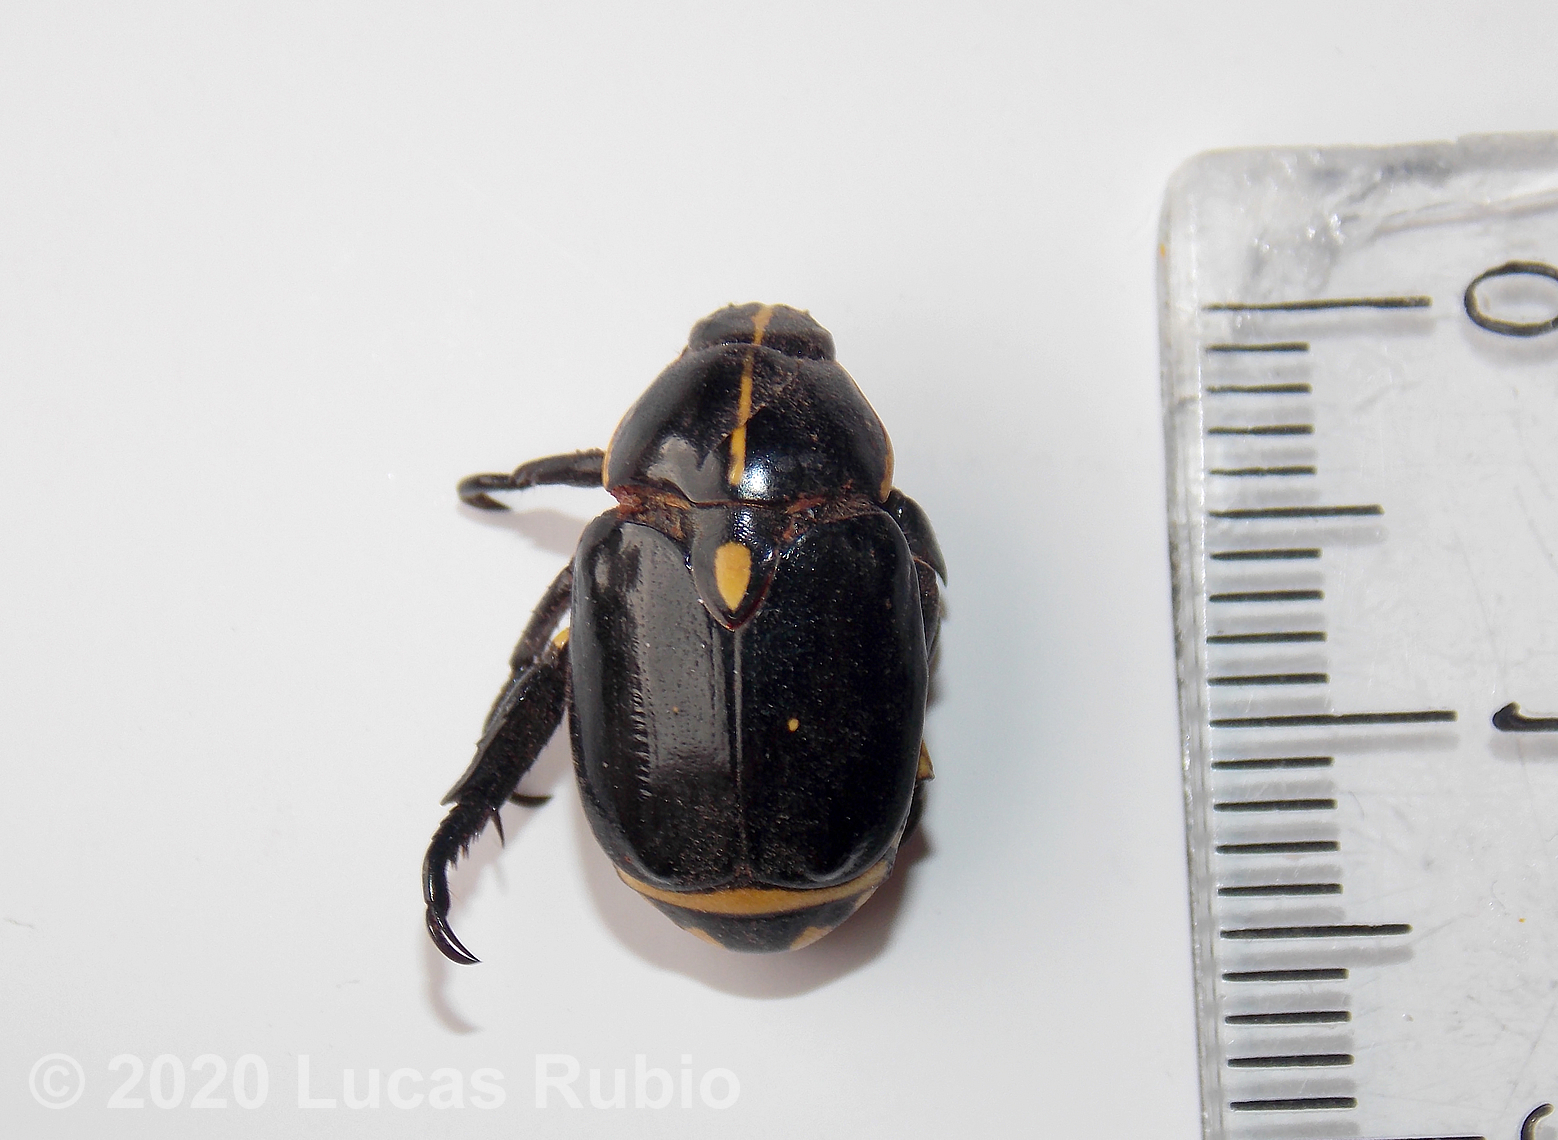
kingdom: Animalia
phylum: Arthropoda
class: Insecta
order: Coleoptera
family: Scarabaeidae
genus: Rutela
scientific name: Rutela lineola
